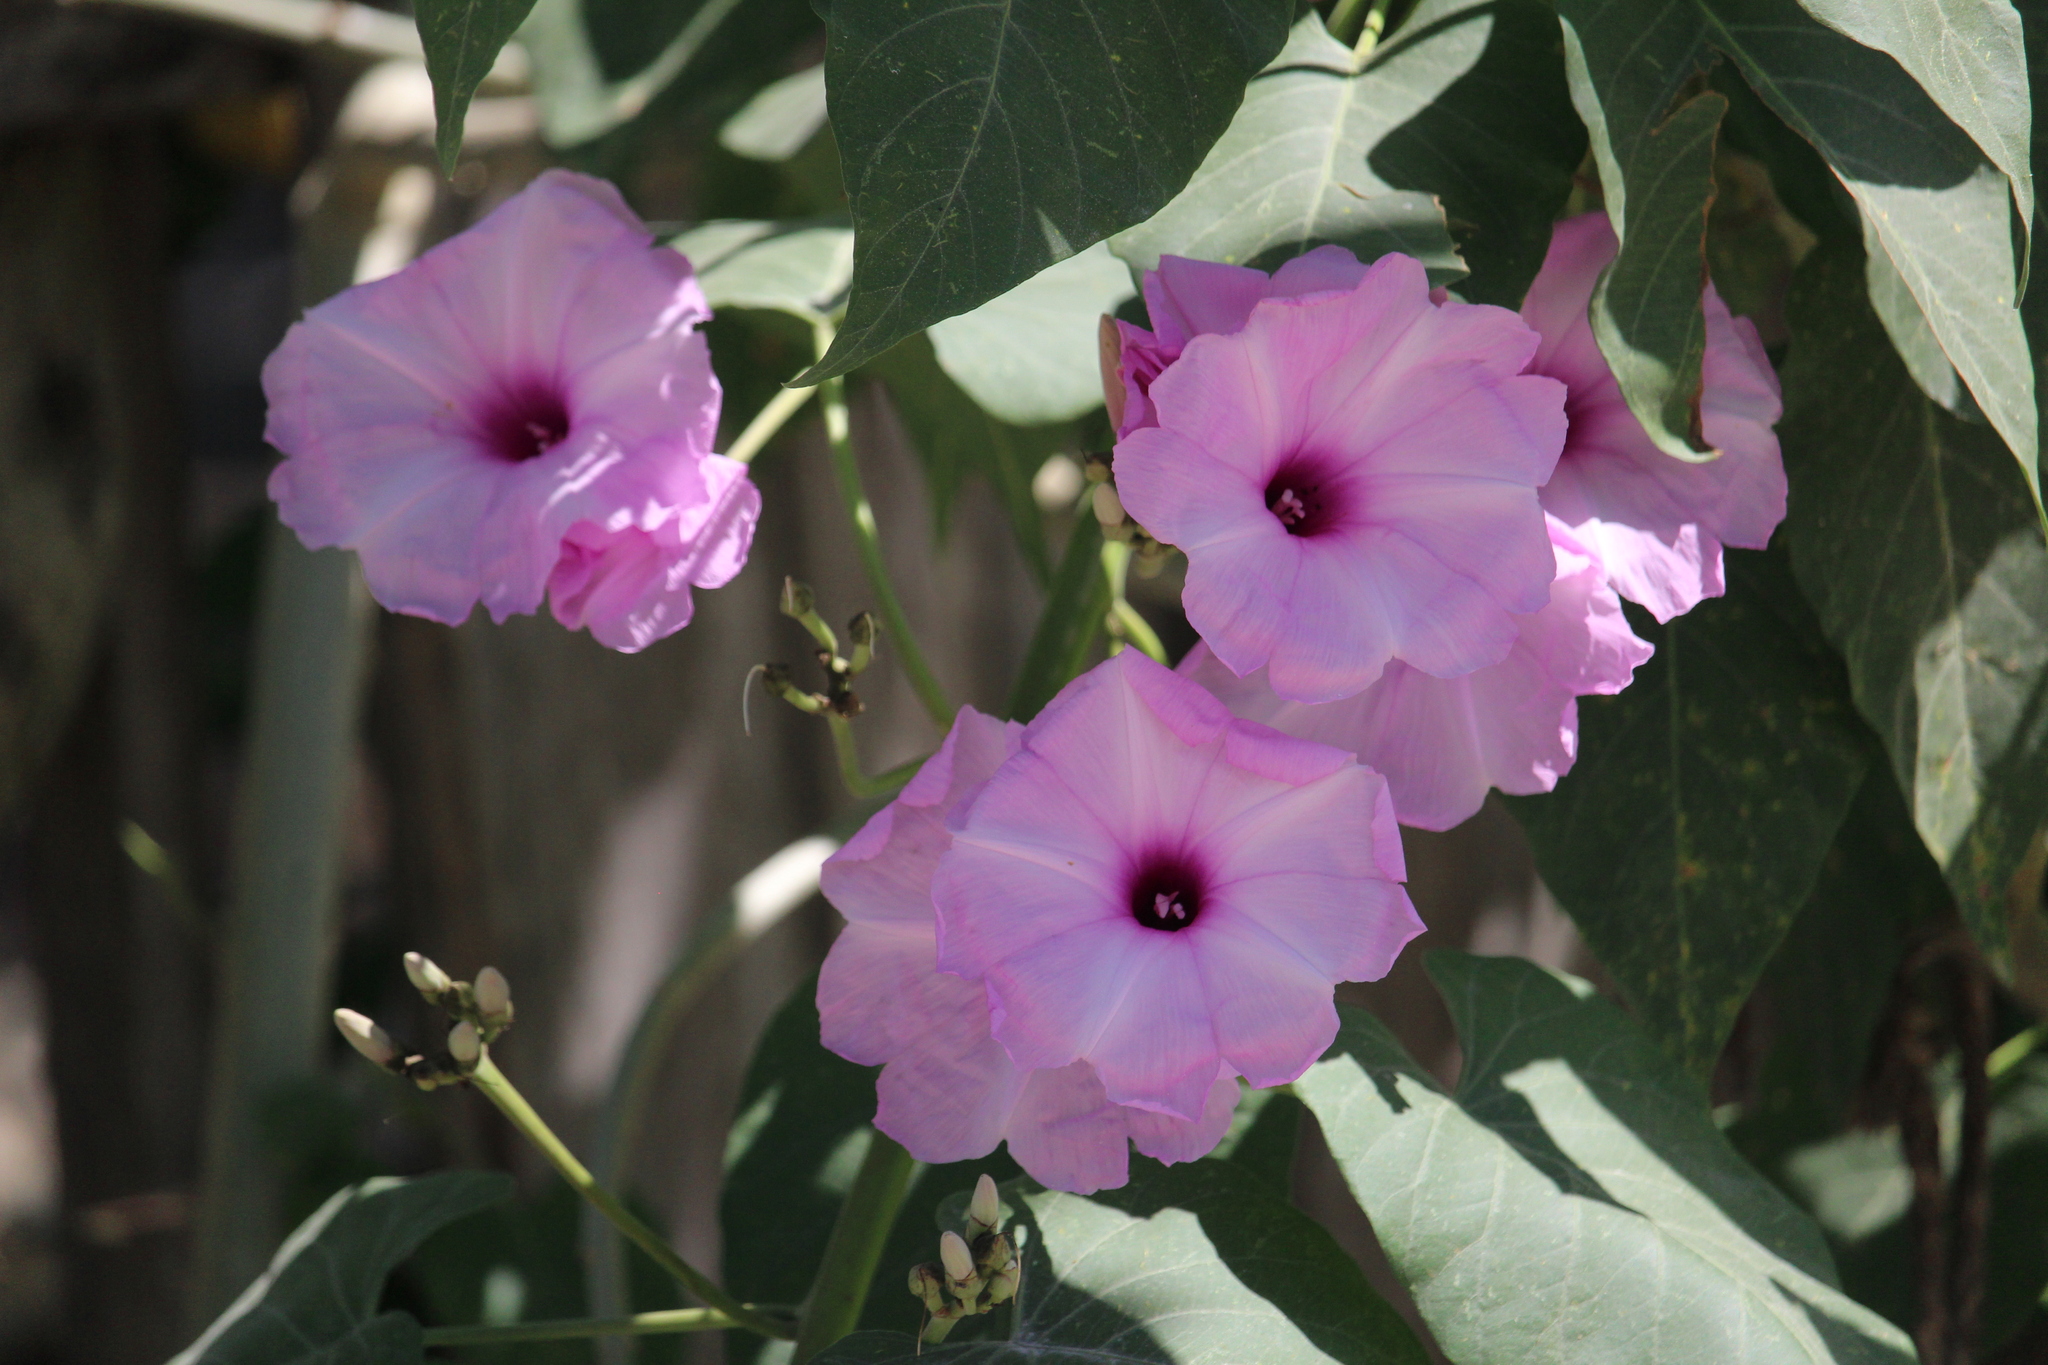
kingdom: Plantae
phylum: Tracheophyta
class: Magnoliopsida
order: Solanales
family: Convolvulaceae
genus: Ipomoea
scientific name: Ipomoea carnea
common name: Morning-glory
